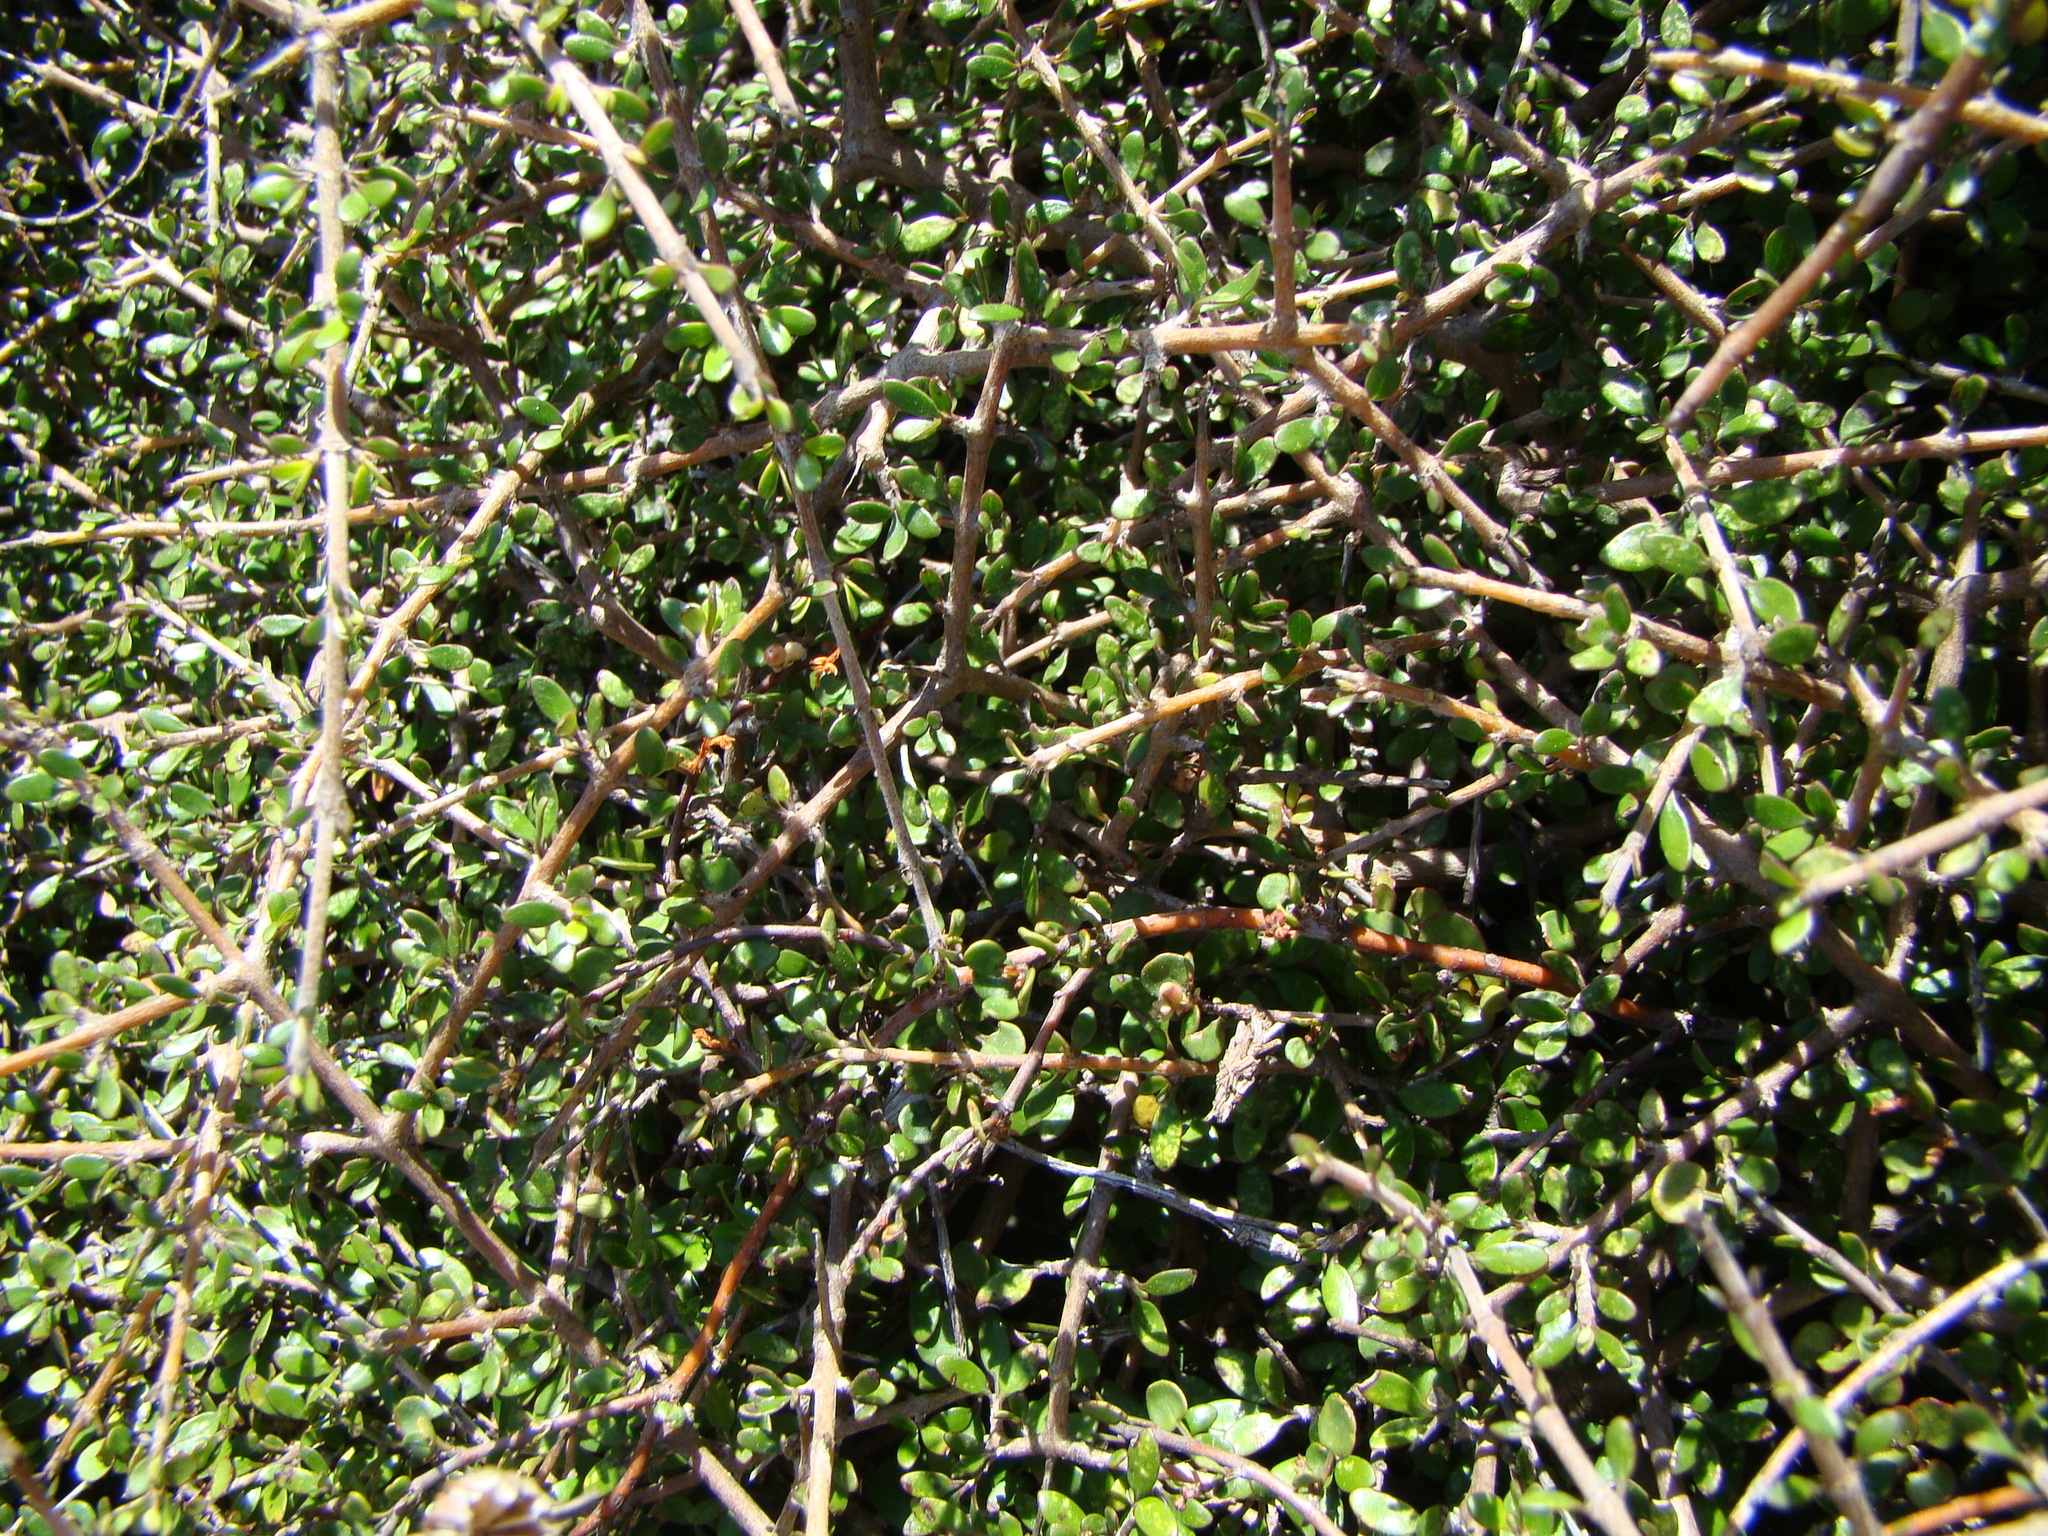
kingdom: Plantae
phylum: Tracheophyta
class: Magnoliopsida
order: Gentianales
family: Rubiaceae
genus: Coprosma
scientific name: Coprosma propinqua
